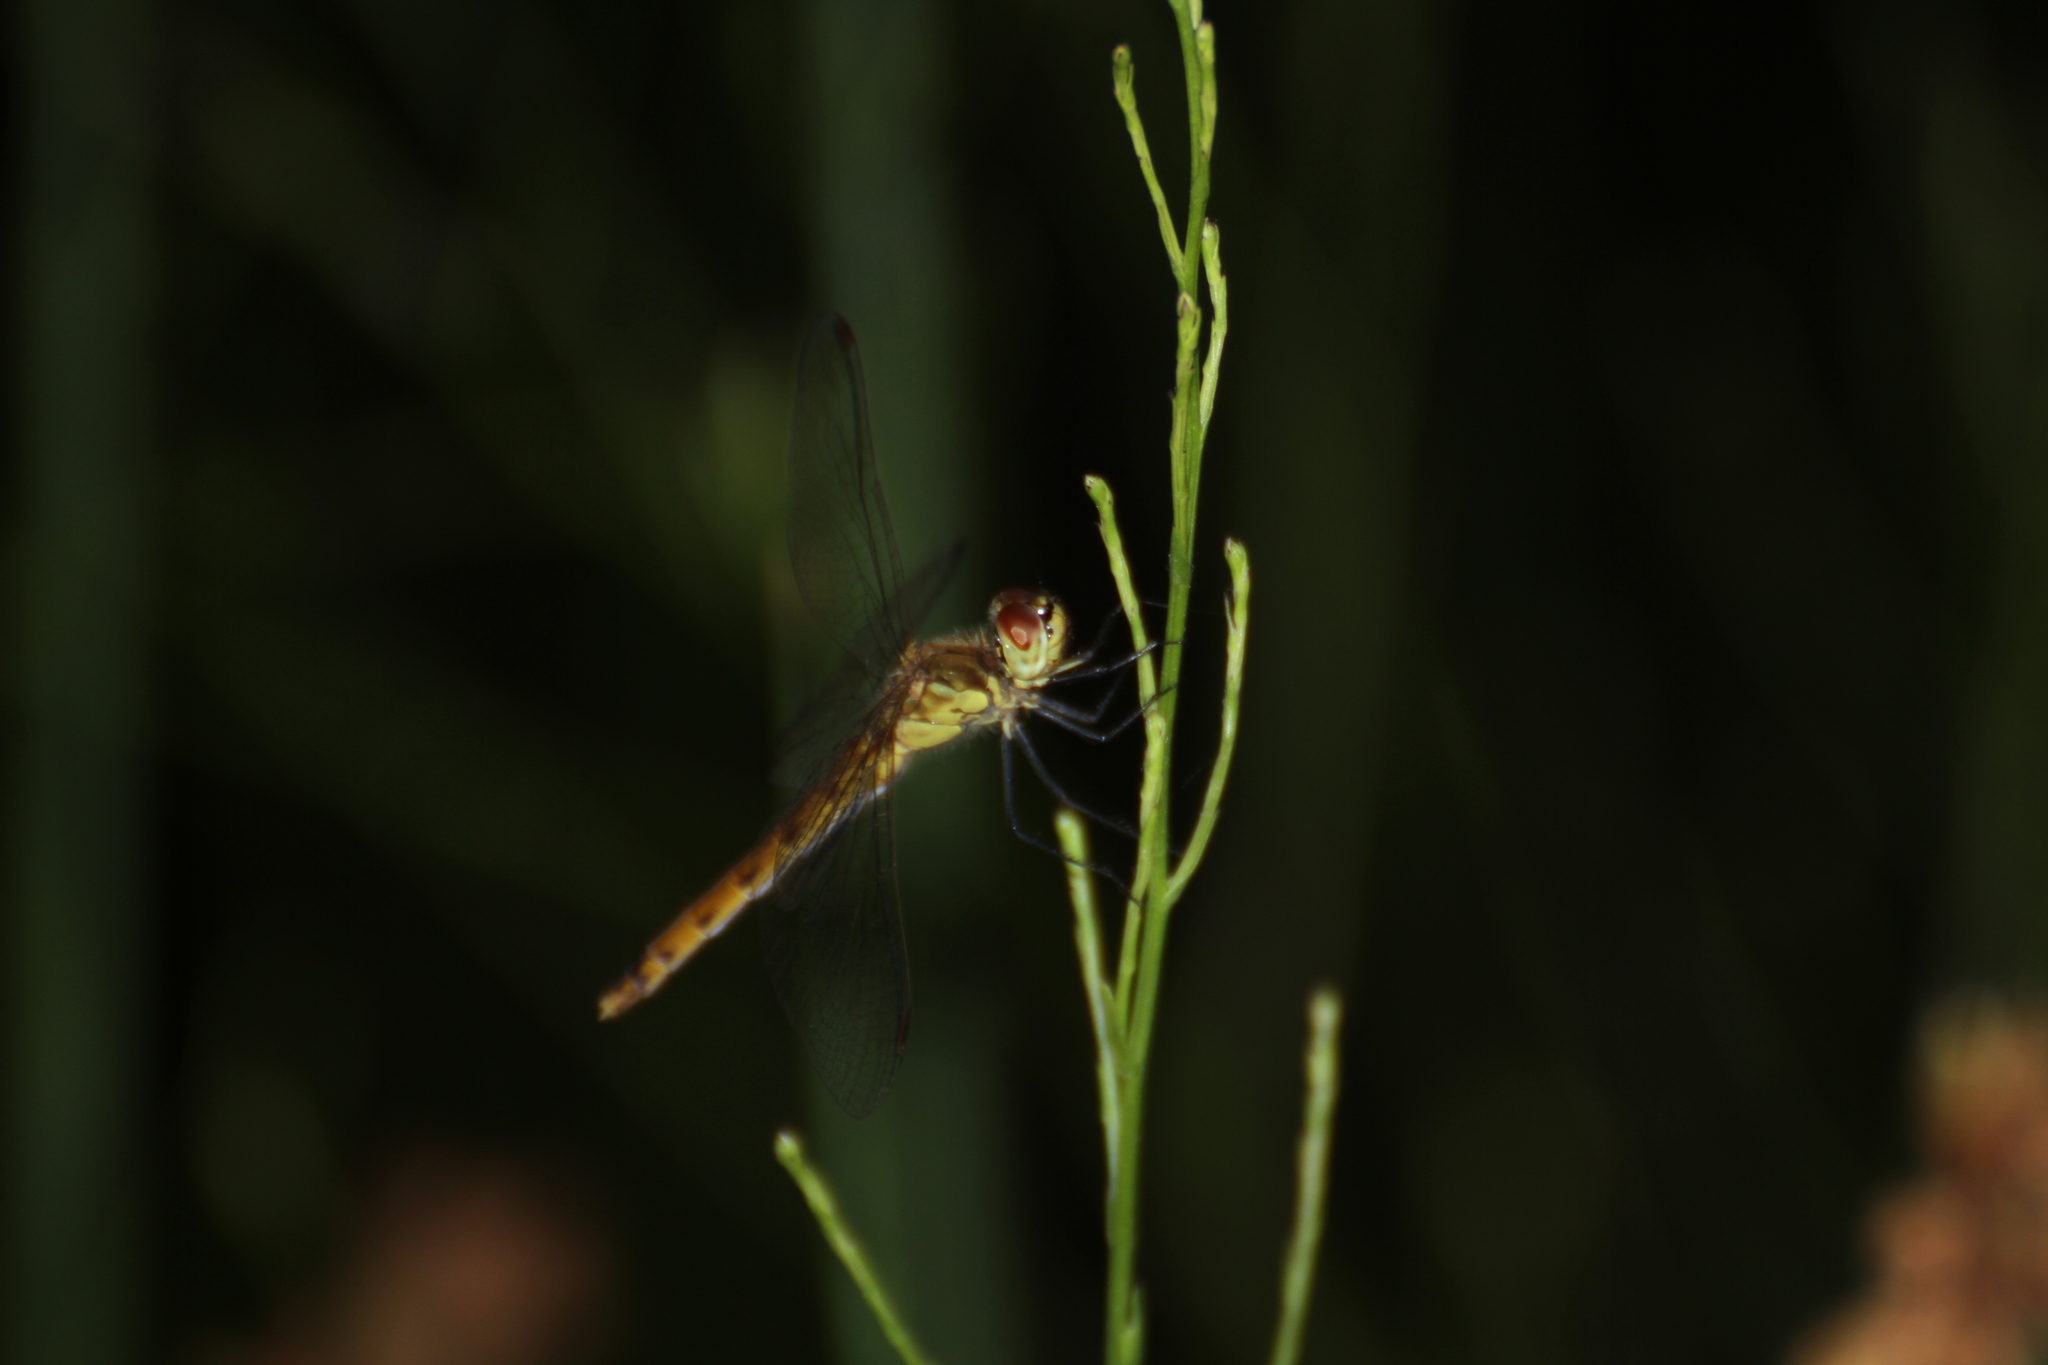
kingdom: Animalia
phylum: Arthropoda
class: Insecta
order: Odonata
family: Libellulidae
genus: Sympetrum
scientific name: Sympetrum depressiusculum
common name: Spotted darter
